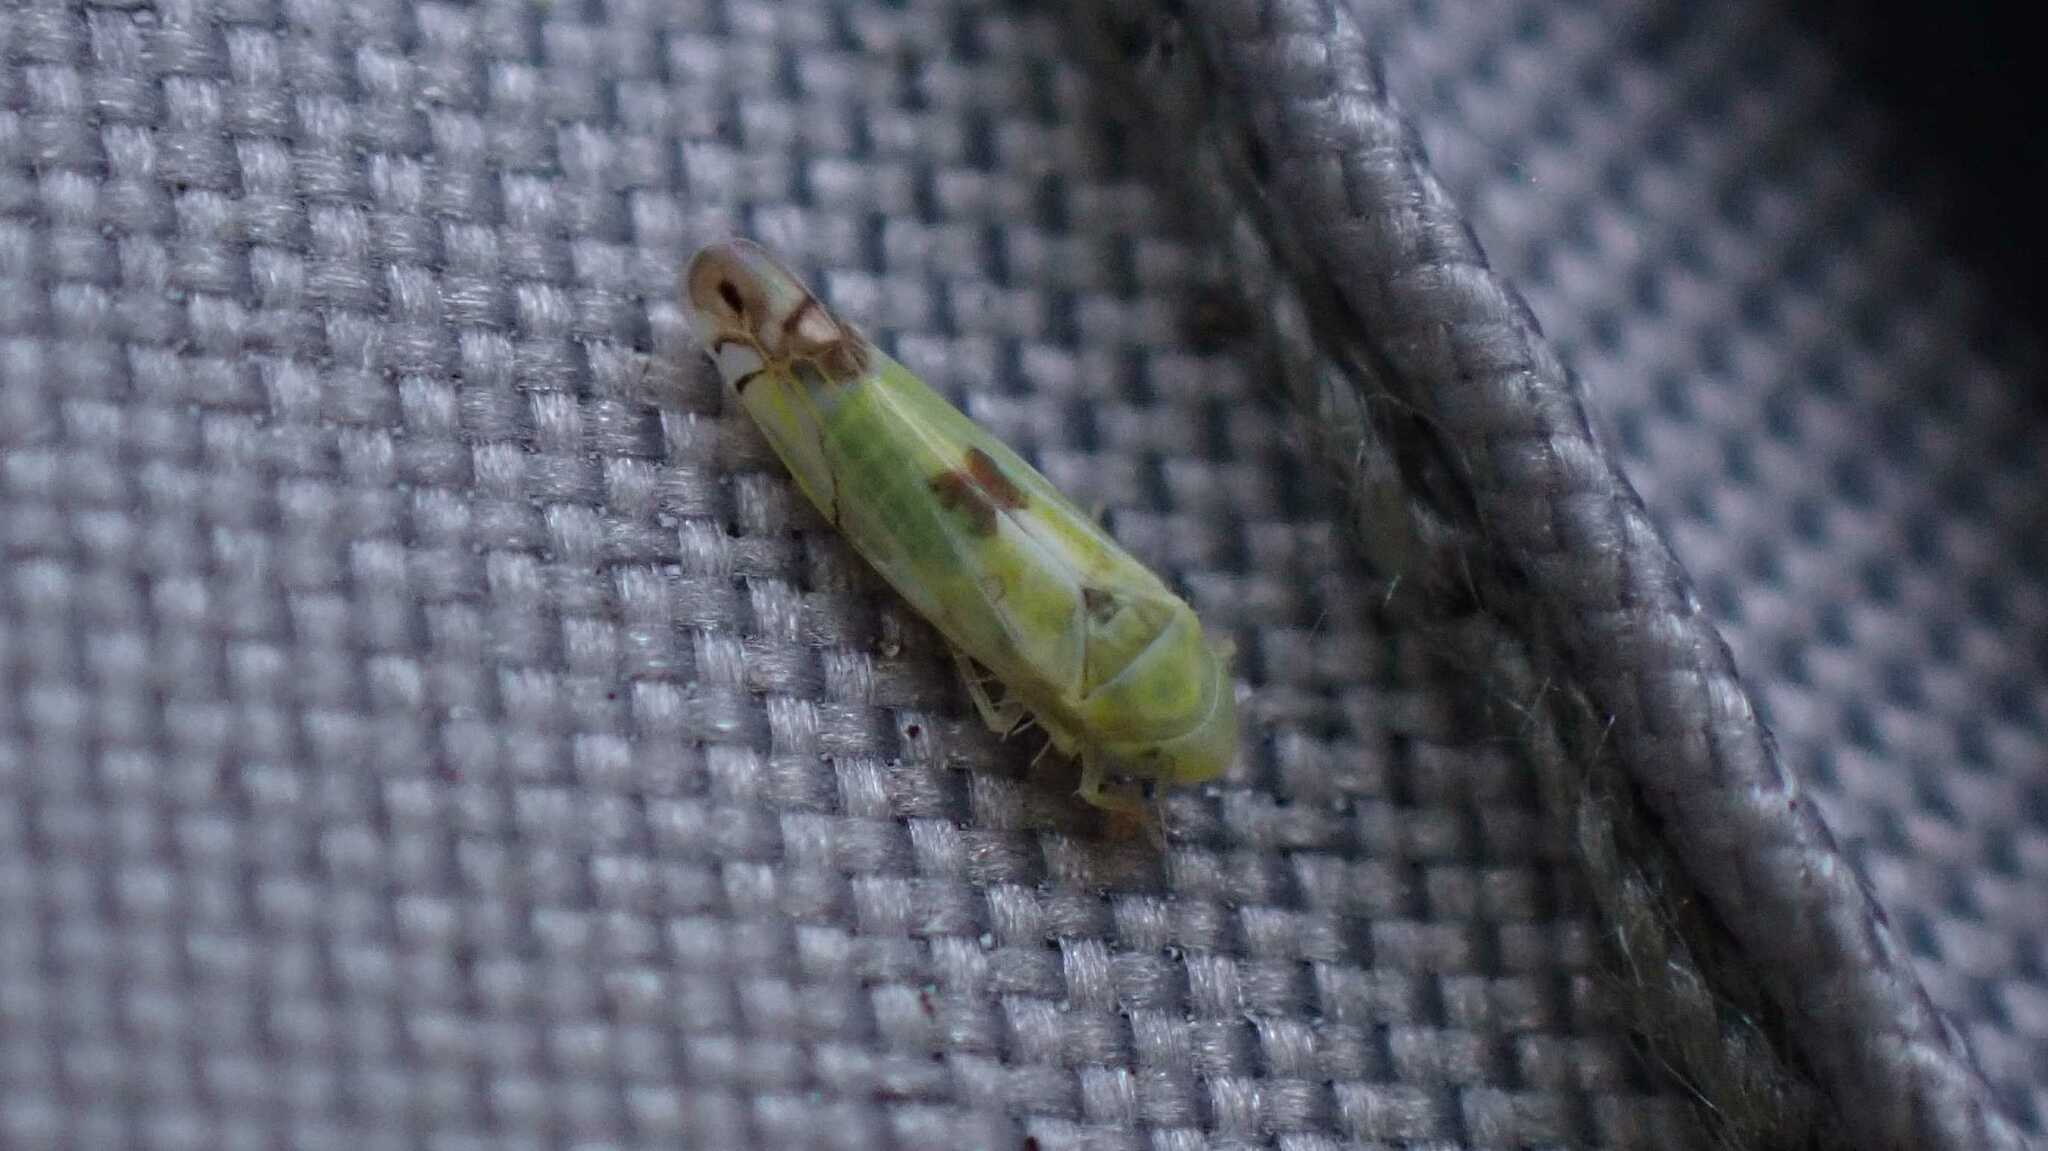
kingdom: Animalia
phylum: Arthropoda
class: Insecta
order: Hemiptera
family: Cicadellidae
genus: Zyginella
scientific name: Zyginella pulchra
